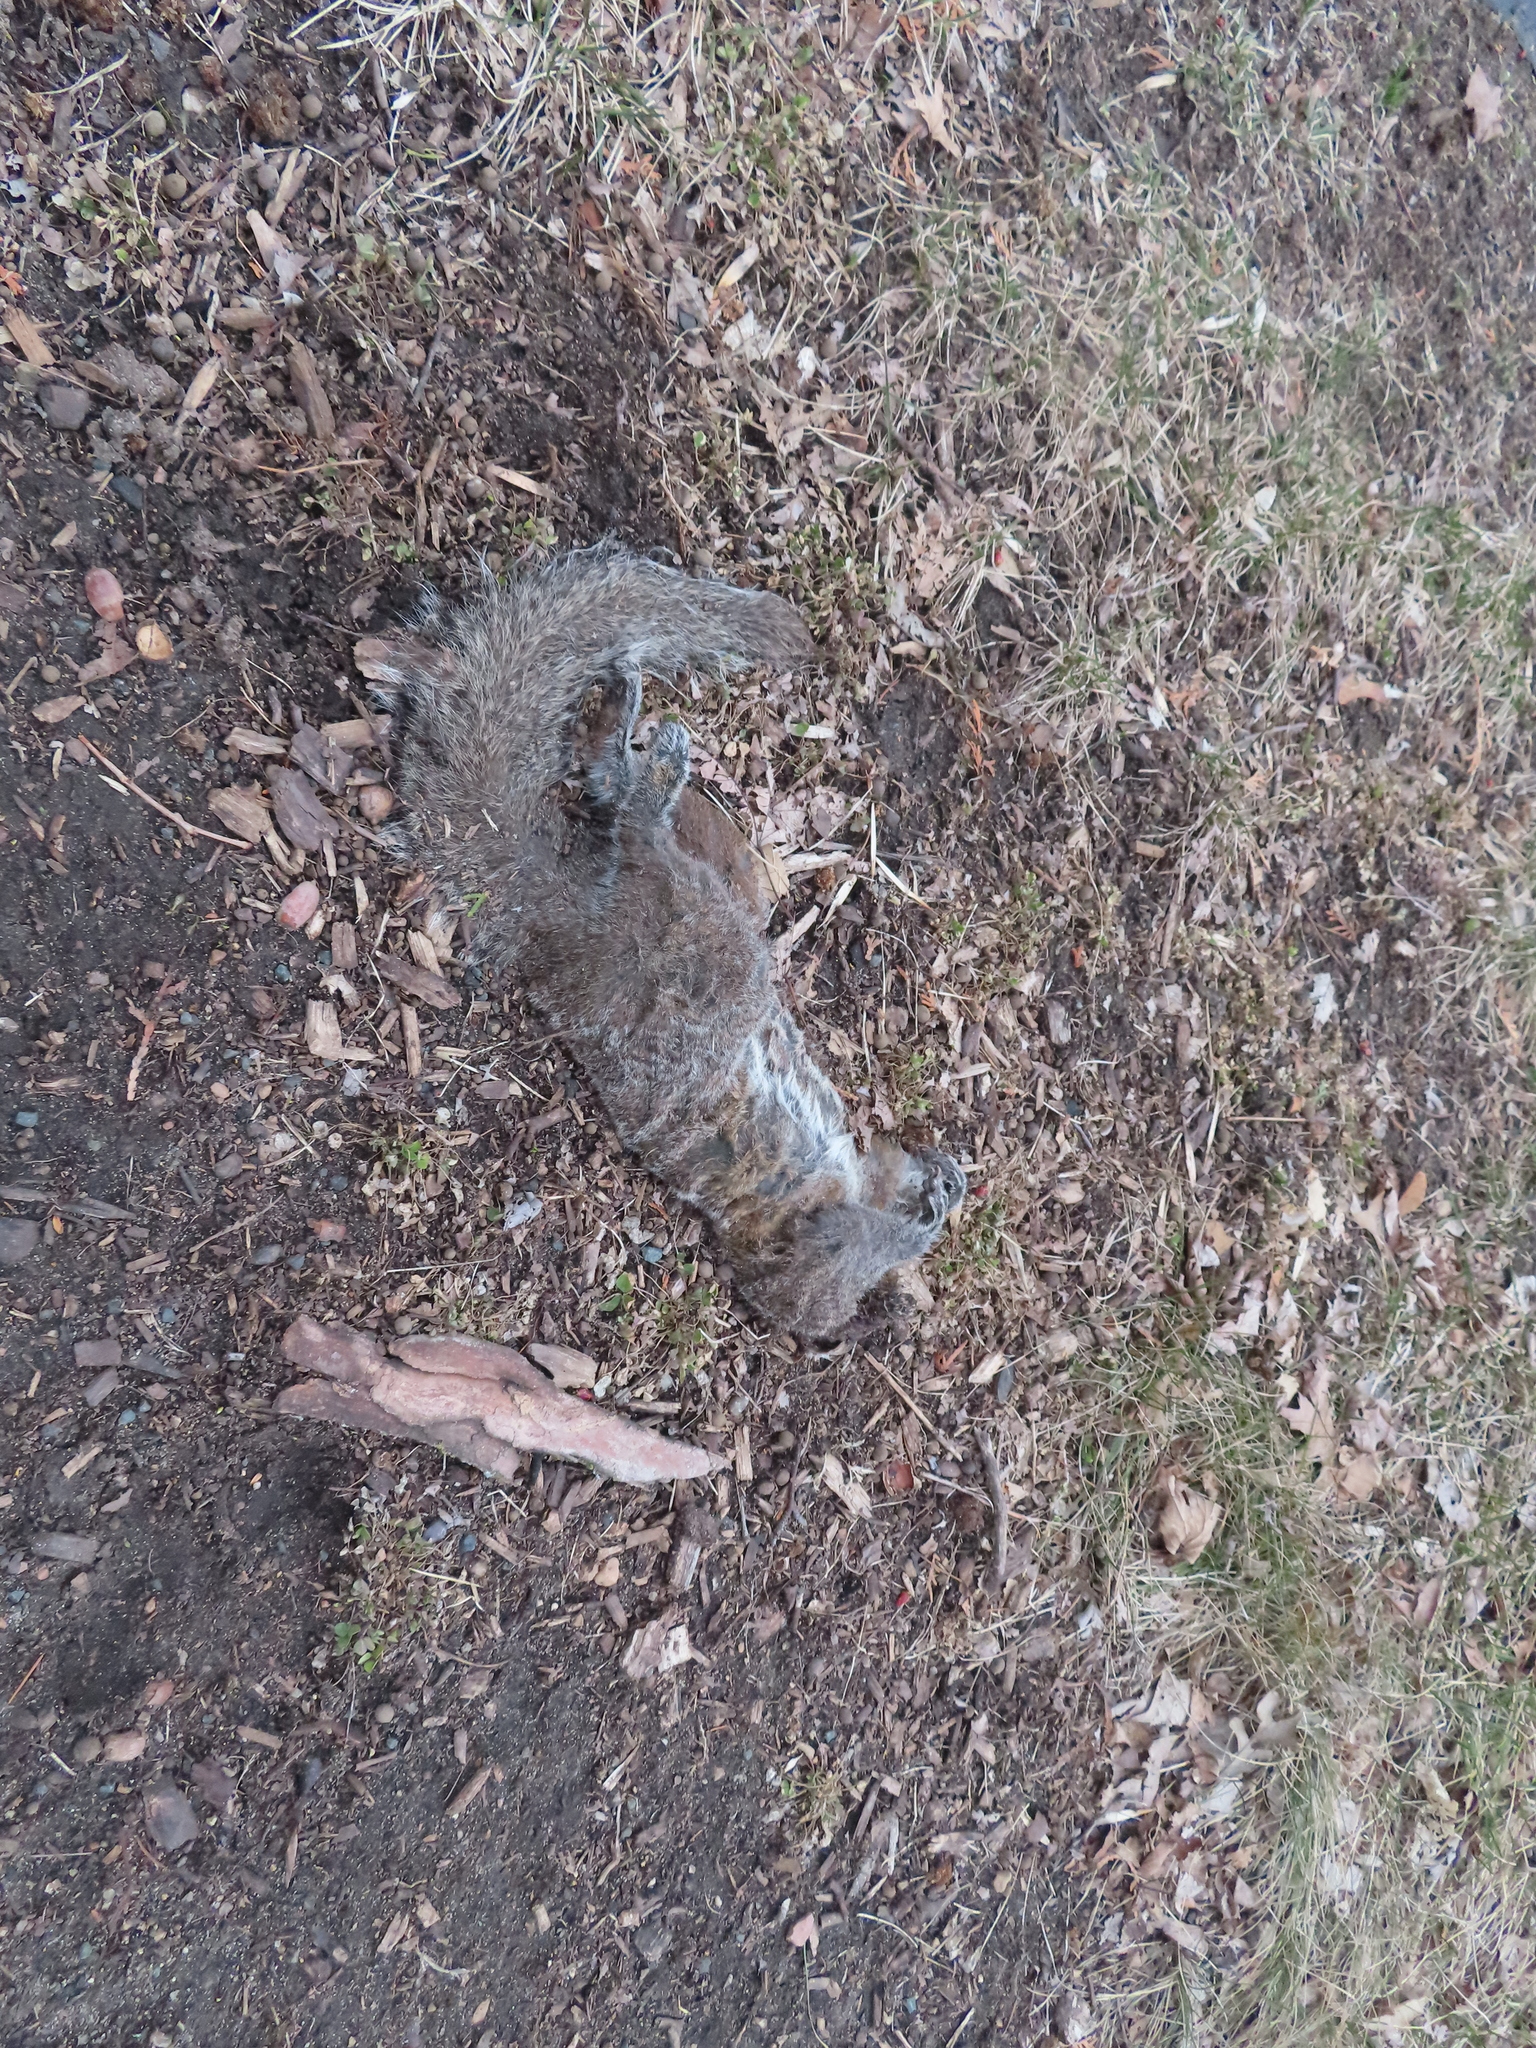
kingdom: Animalia
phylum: Chordata
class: Mammalia
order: Rodentia
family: Sciuridae
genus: Sciurus
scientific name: Sciurus carolinensis
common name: Eastern gray squirrel
